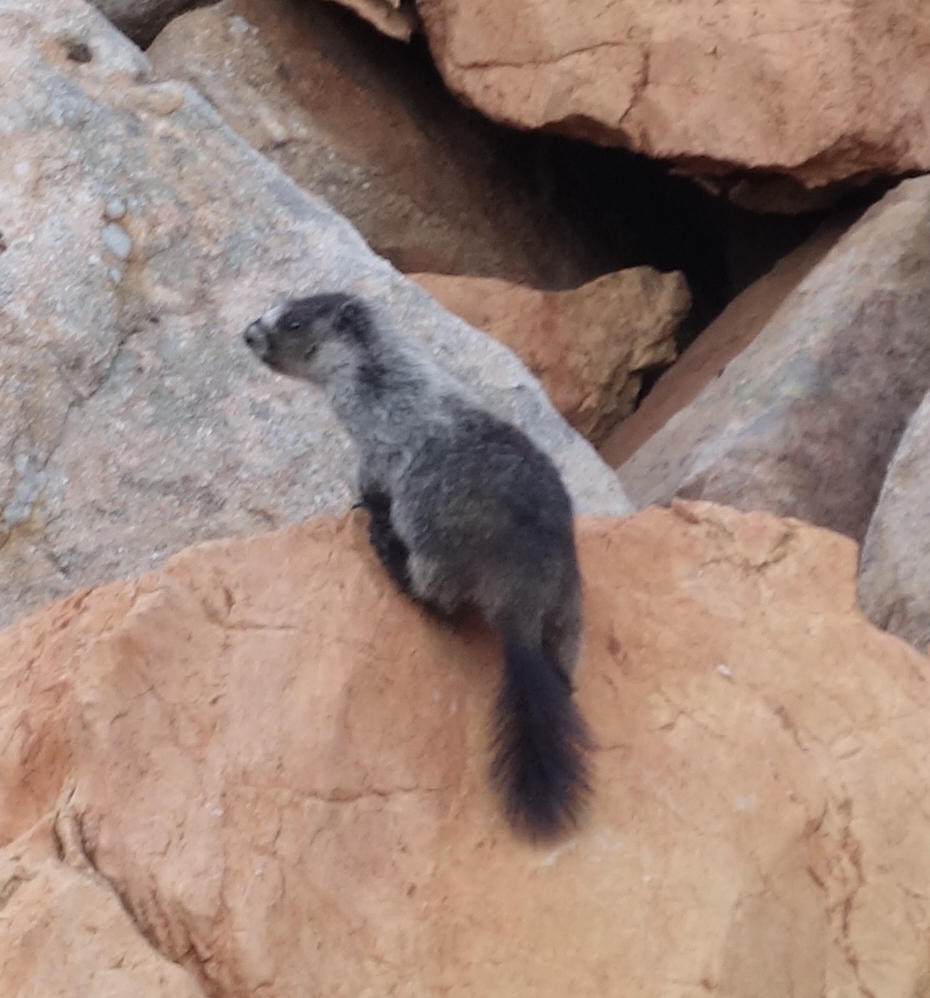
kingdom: Animalia
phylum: Chordata
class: Mammalia
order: Rodentia
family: Sciuridae
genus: Marmota
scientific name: Marmota caligata
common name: Hoary marmot
